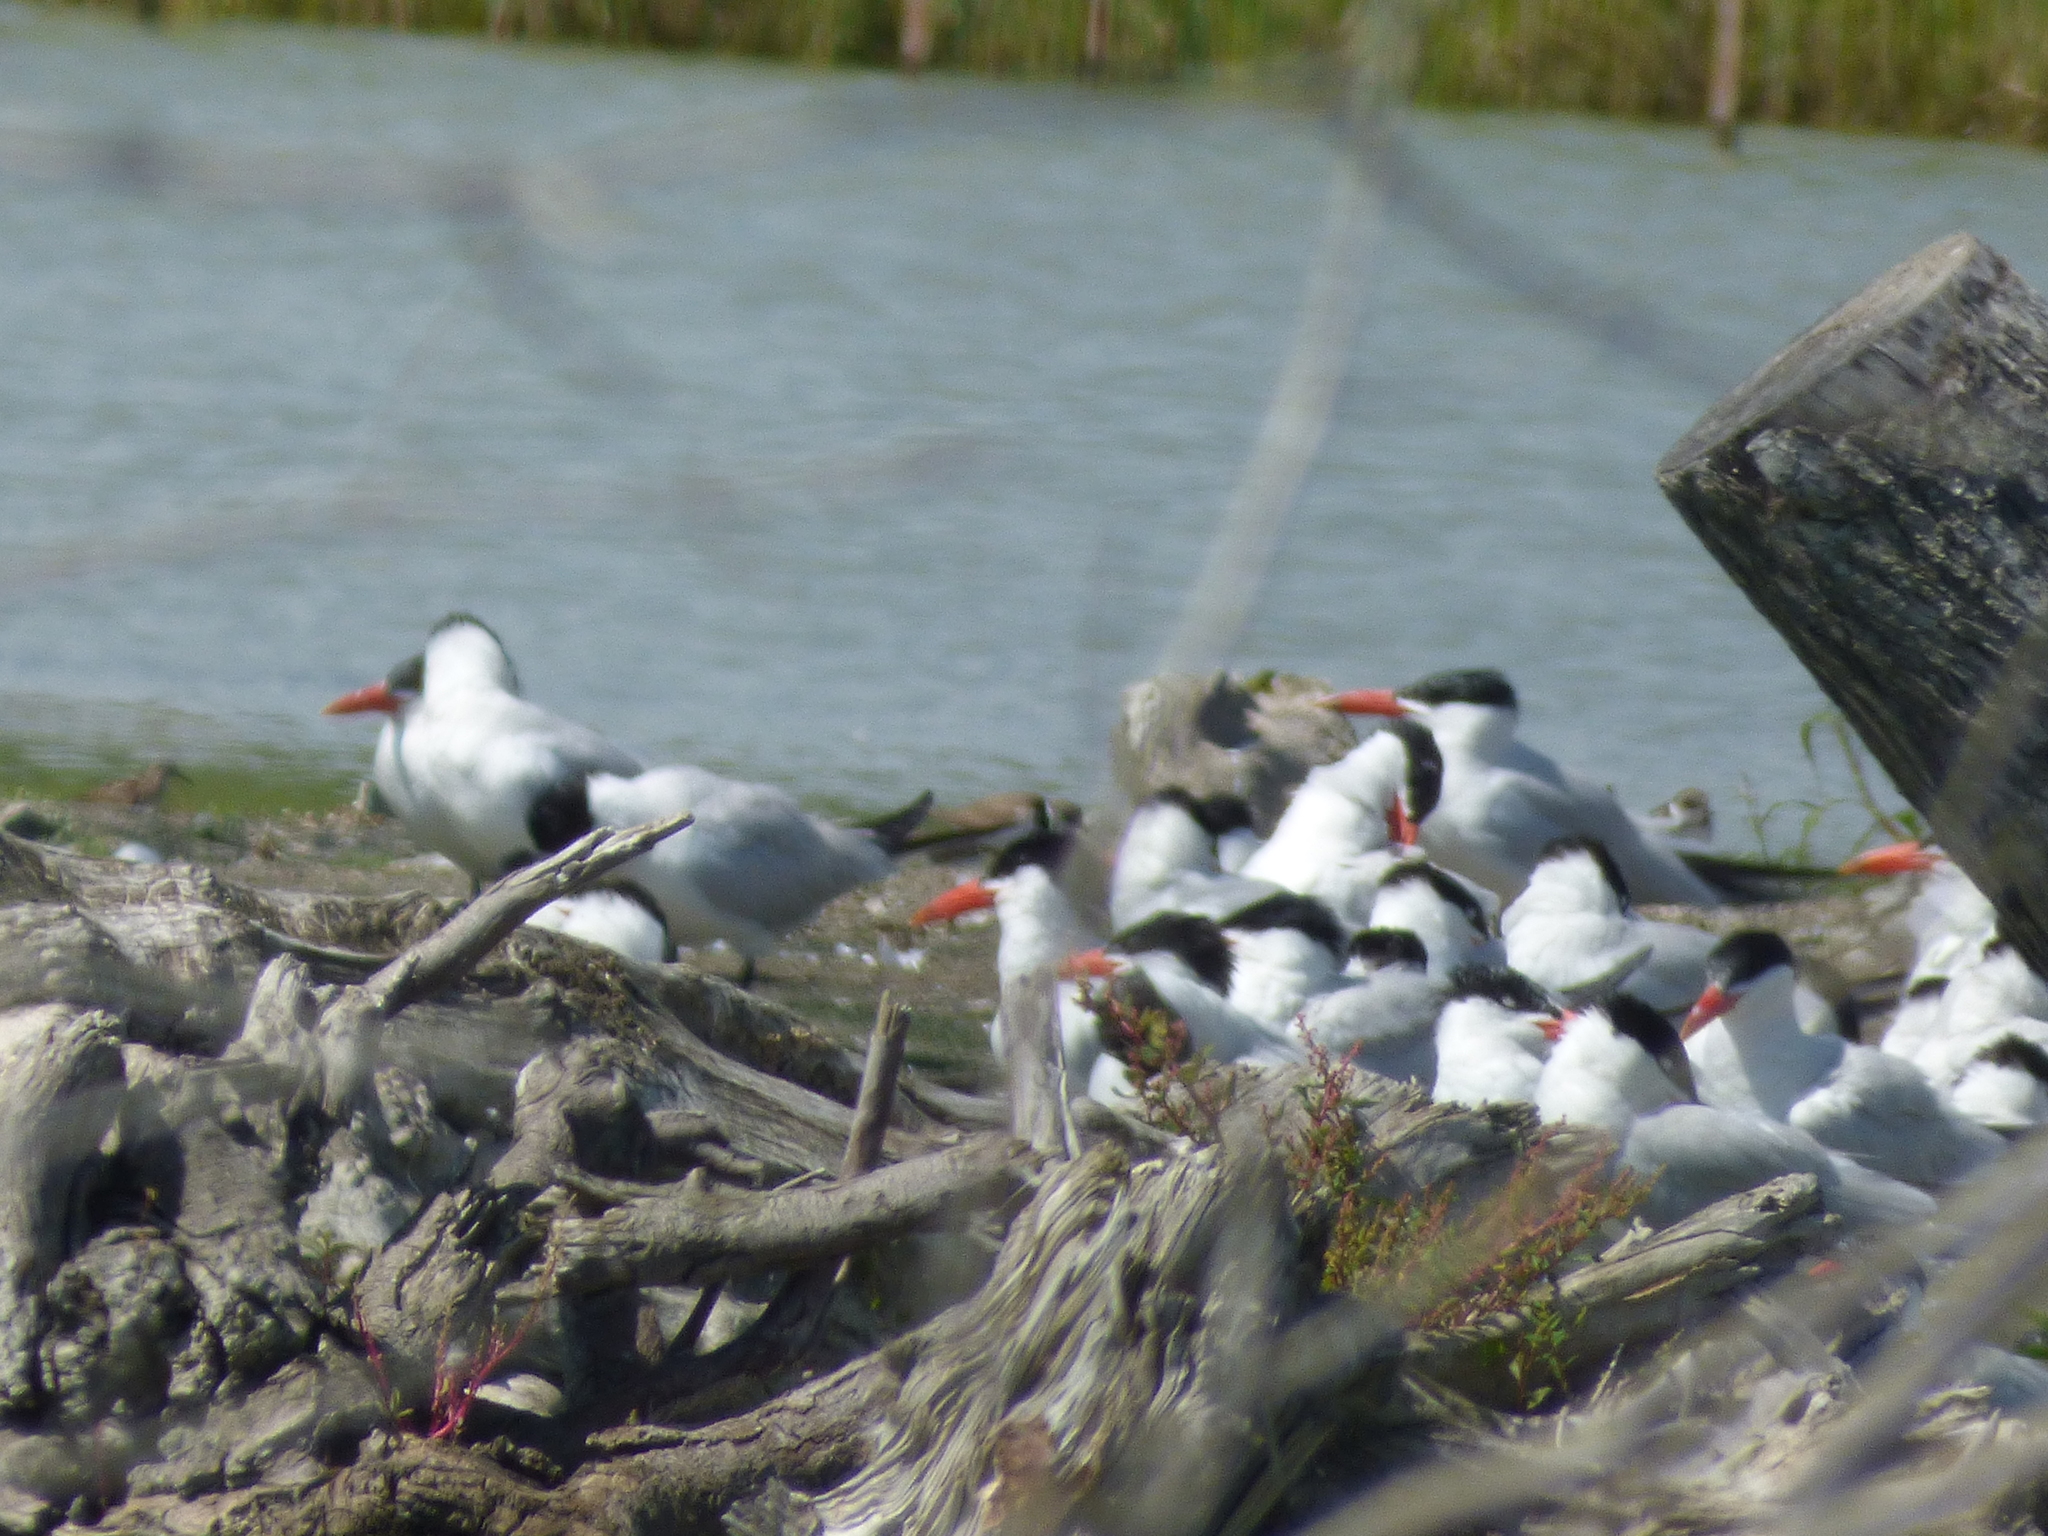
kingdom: Animalia
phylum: Chordata
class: Aves
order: Charadriiformes
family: Laridae
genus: Hydroprogne
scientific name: Hydroprogne caspia
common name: Caspian tern
